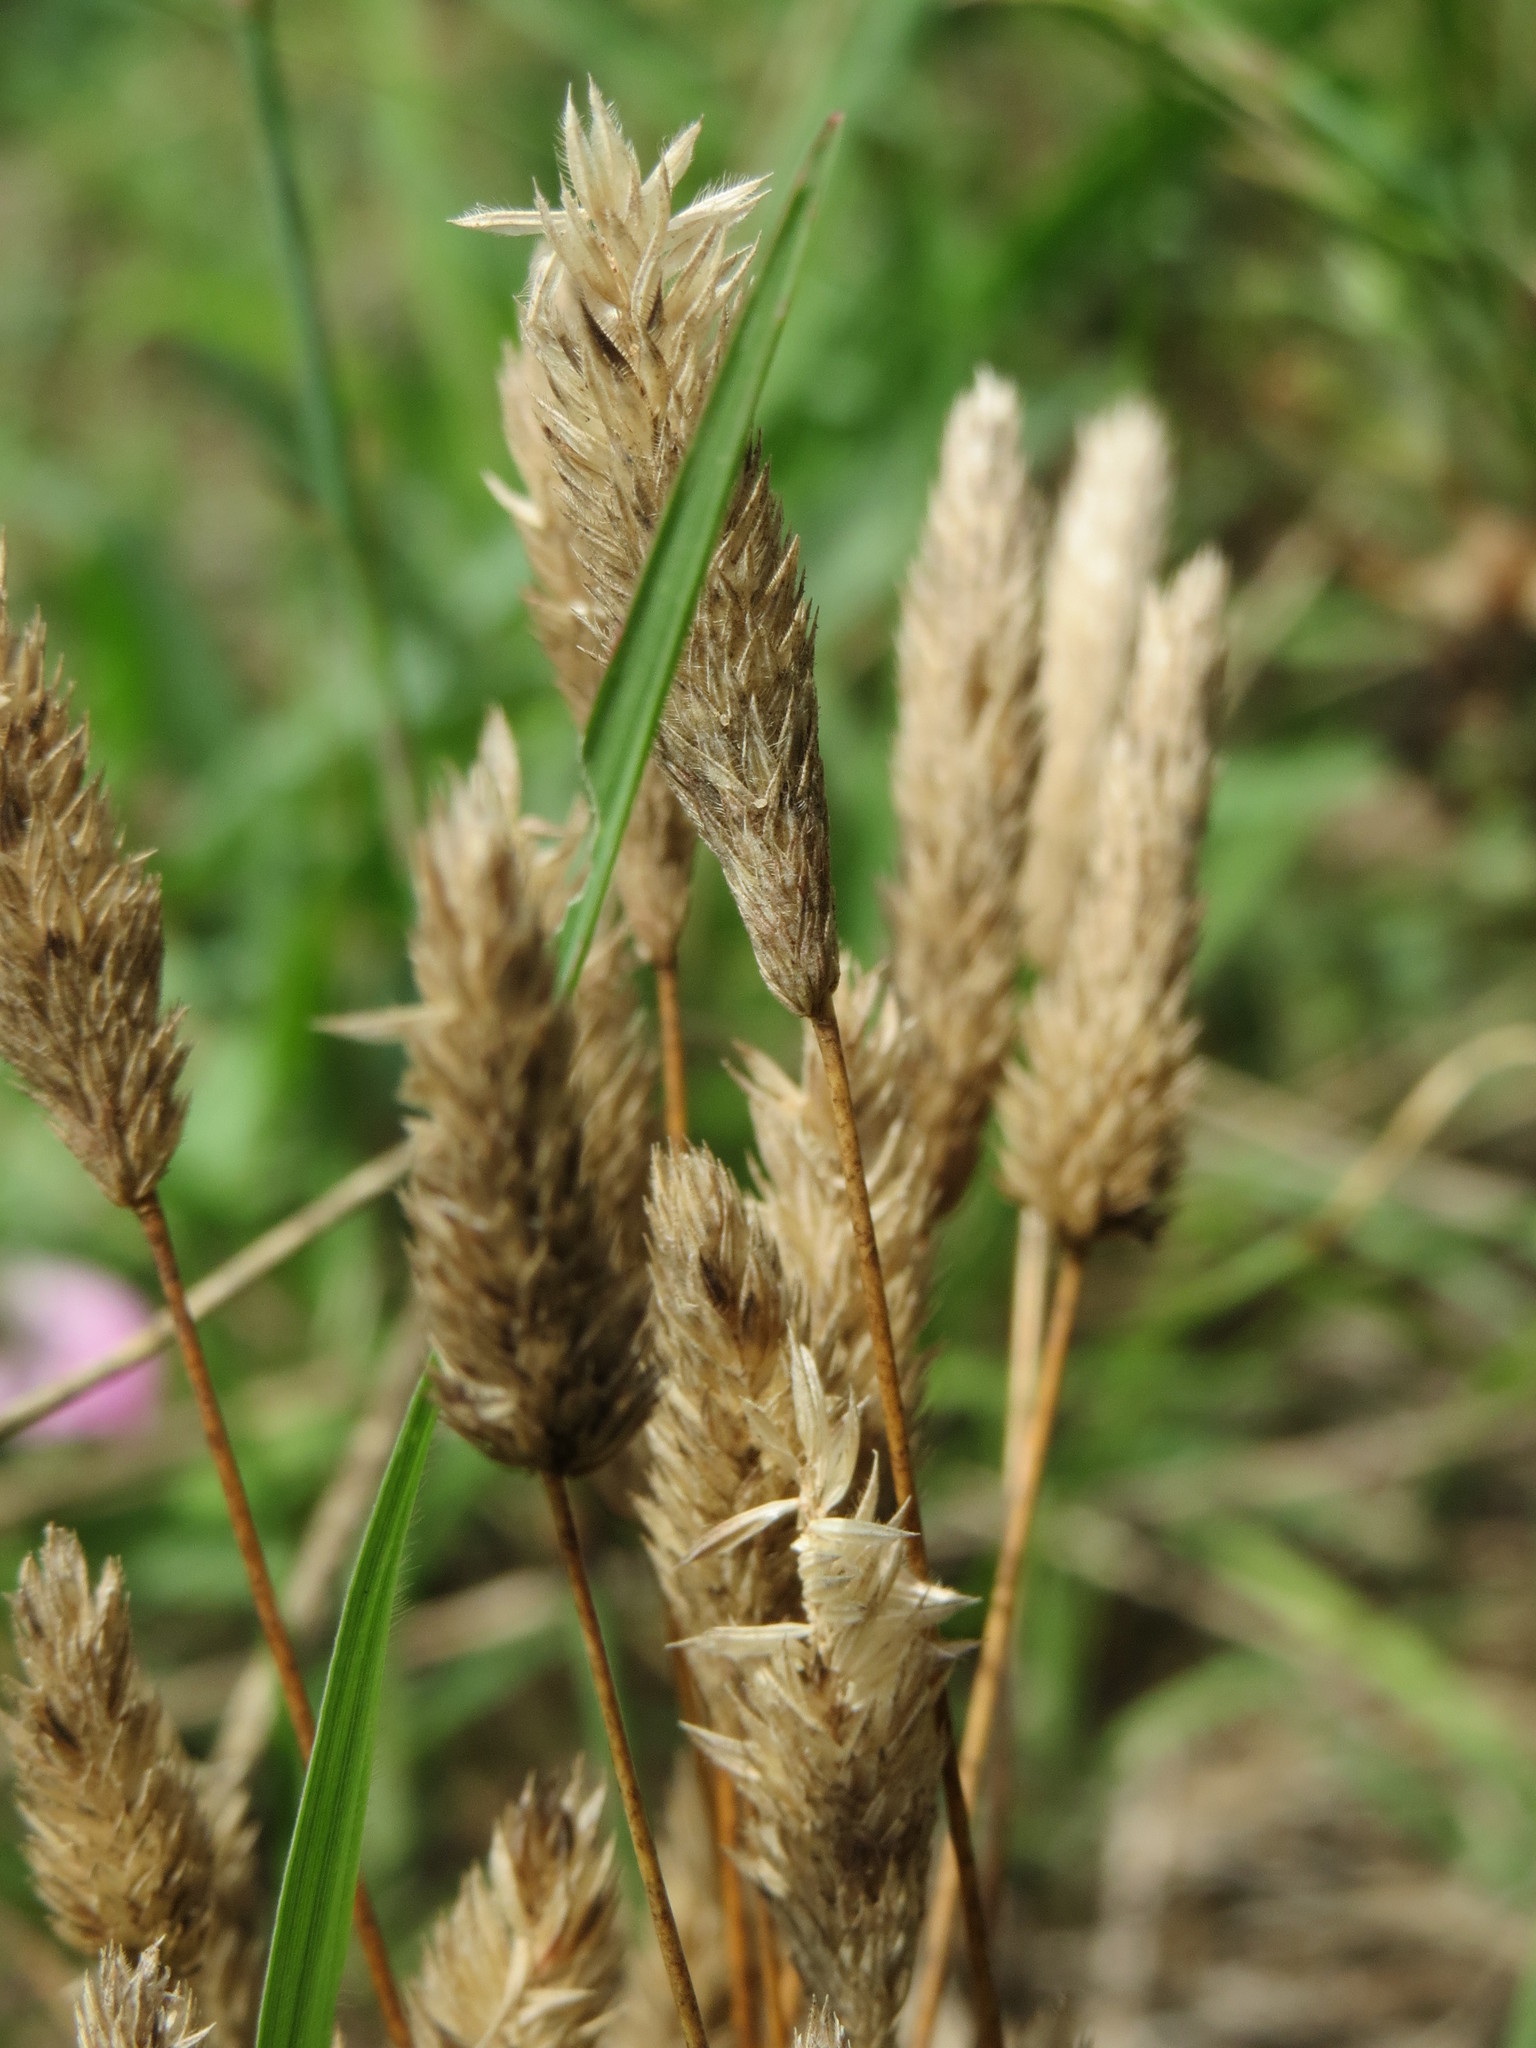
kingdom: Plantae
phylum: Tracheophyta
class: Liliopsida
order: Poales
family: Poaceae
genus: Phleum
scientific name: Phleum arenarium
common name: Sand cat's-tail
